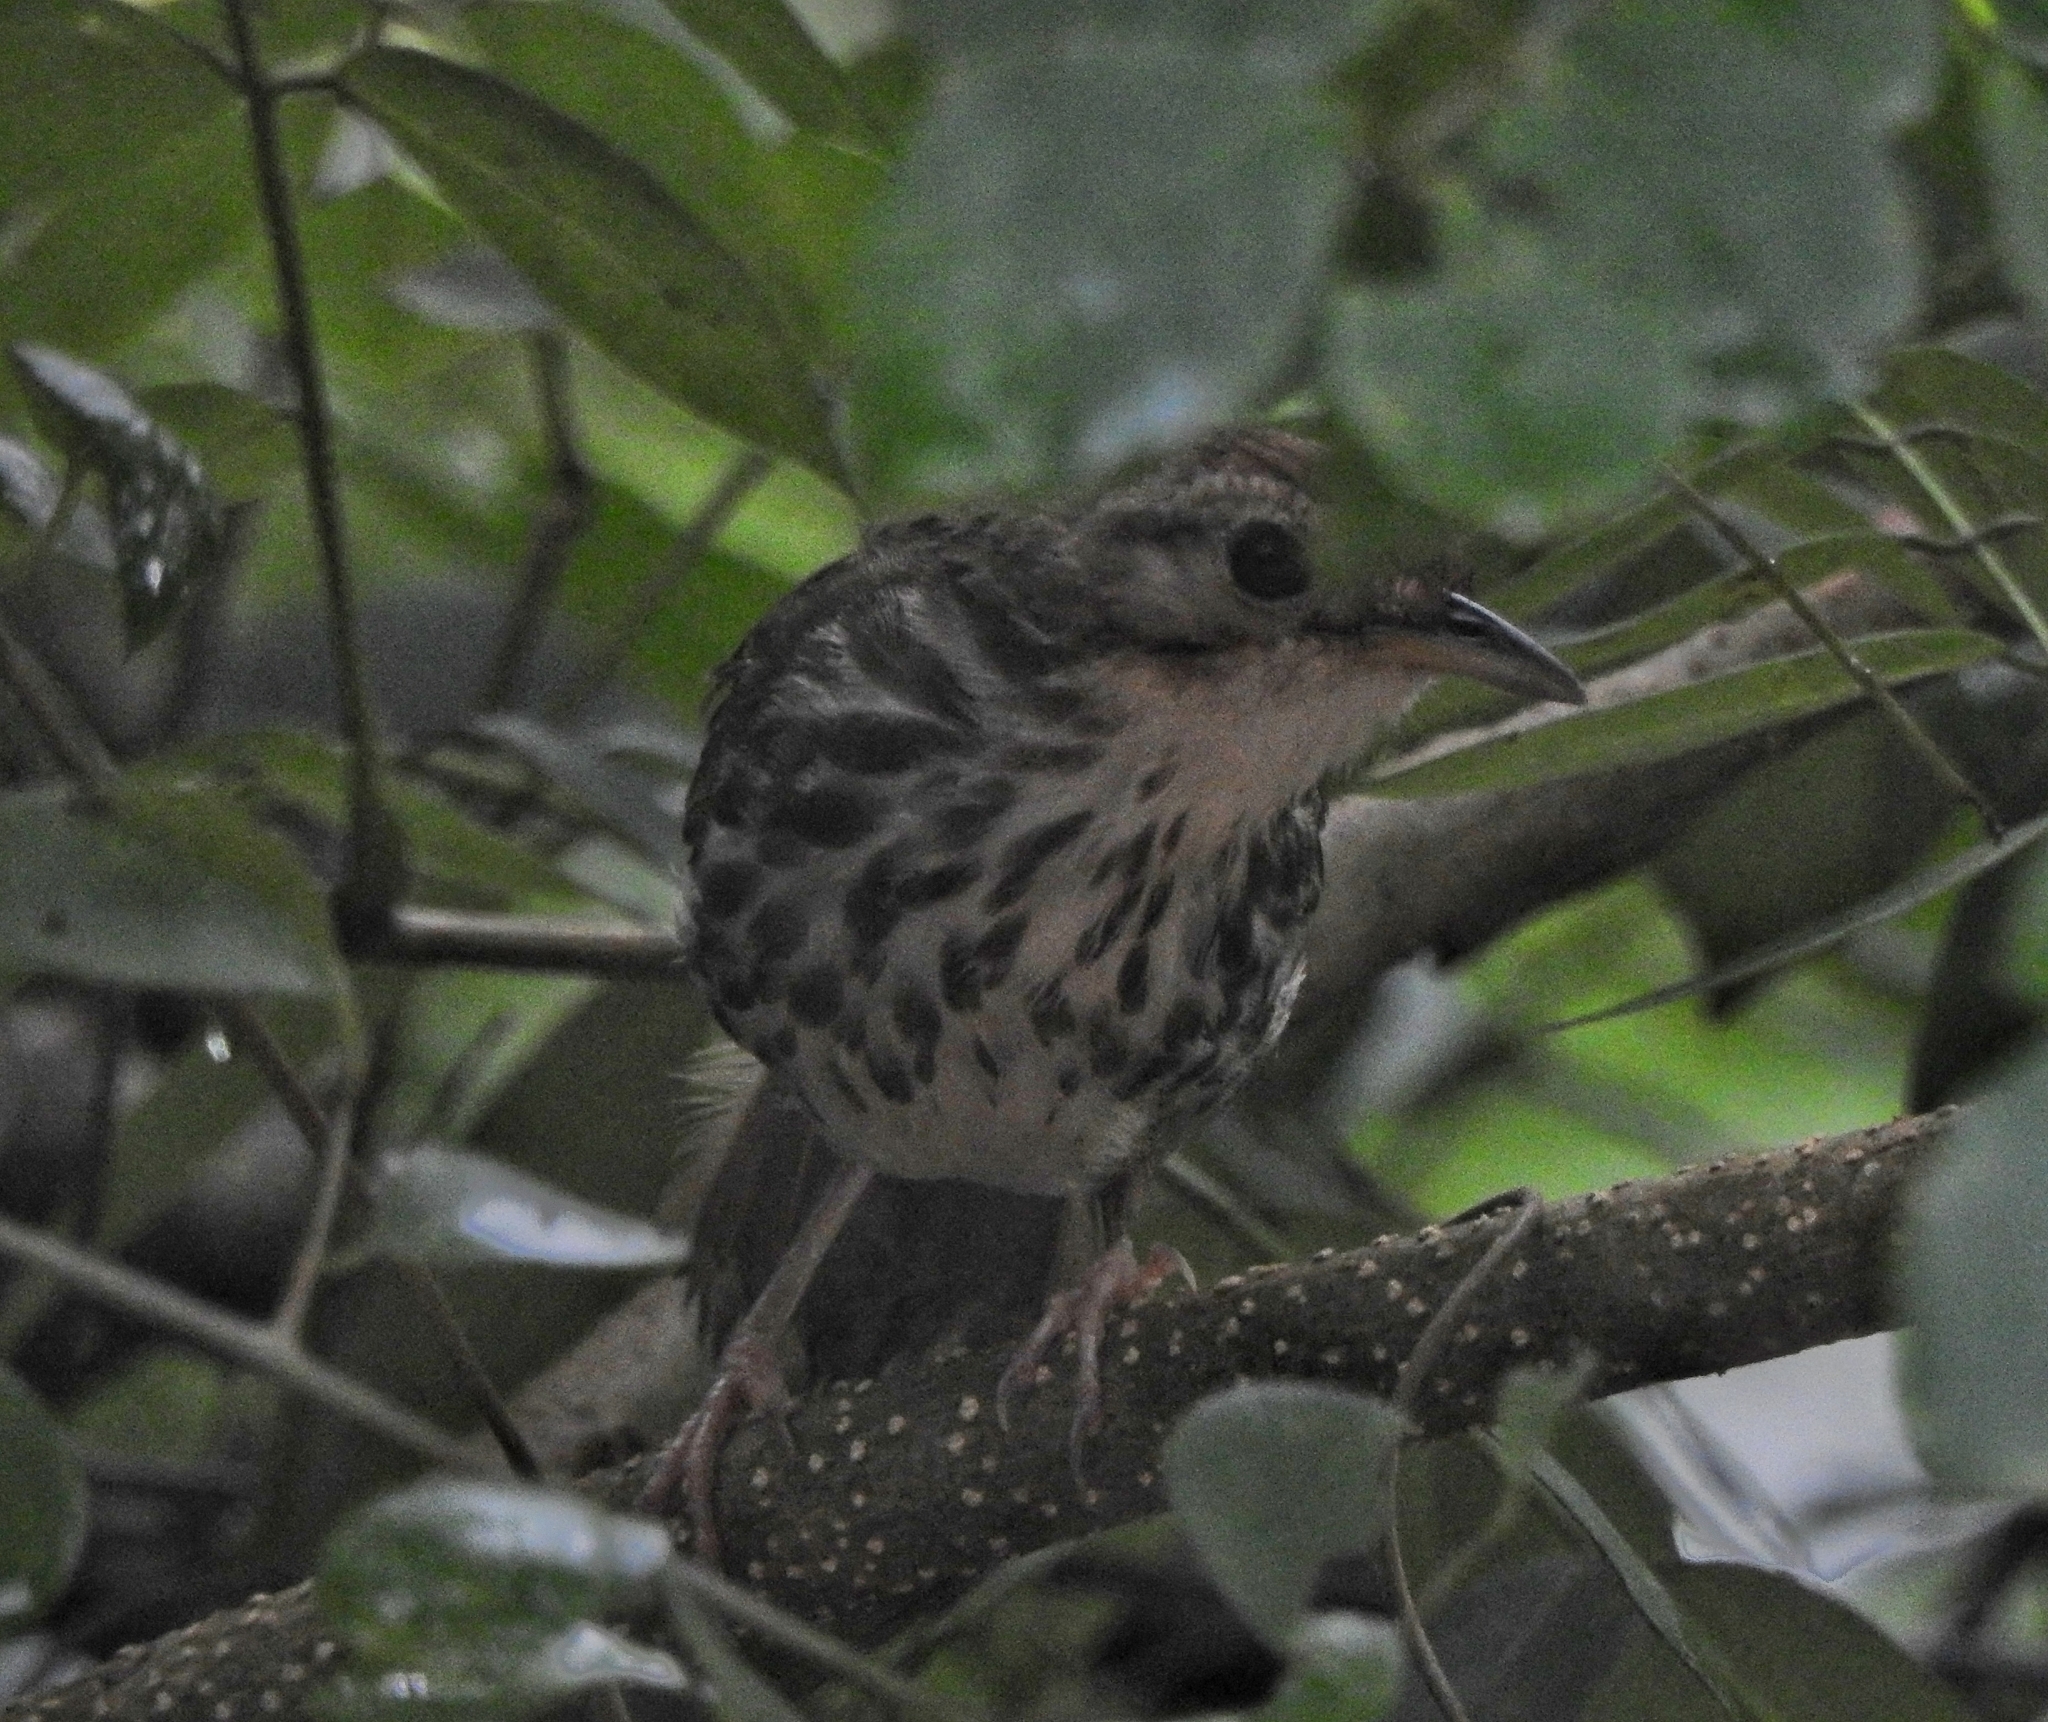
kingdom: Animalia
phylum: Chordata
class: Aves
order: Passeriformes
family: Pellorneidae
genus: Pellorneum
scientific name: Pellorneum ruficeps
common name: Puff-throated babbler
